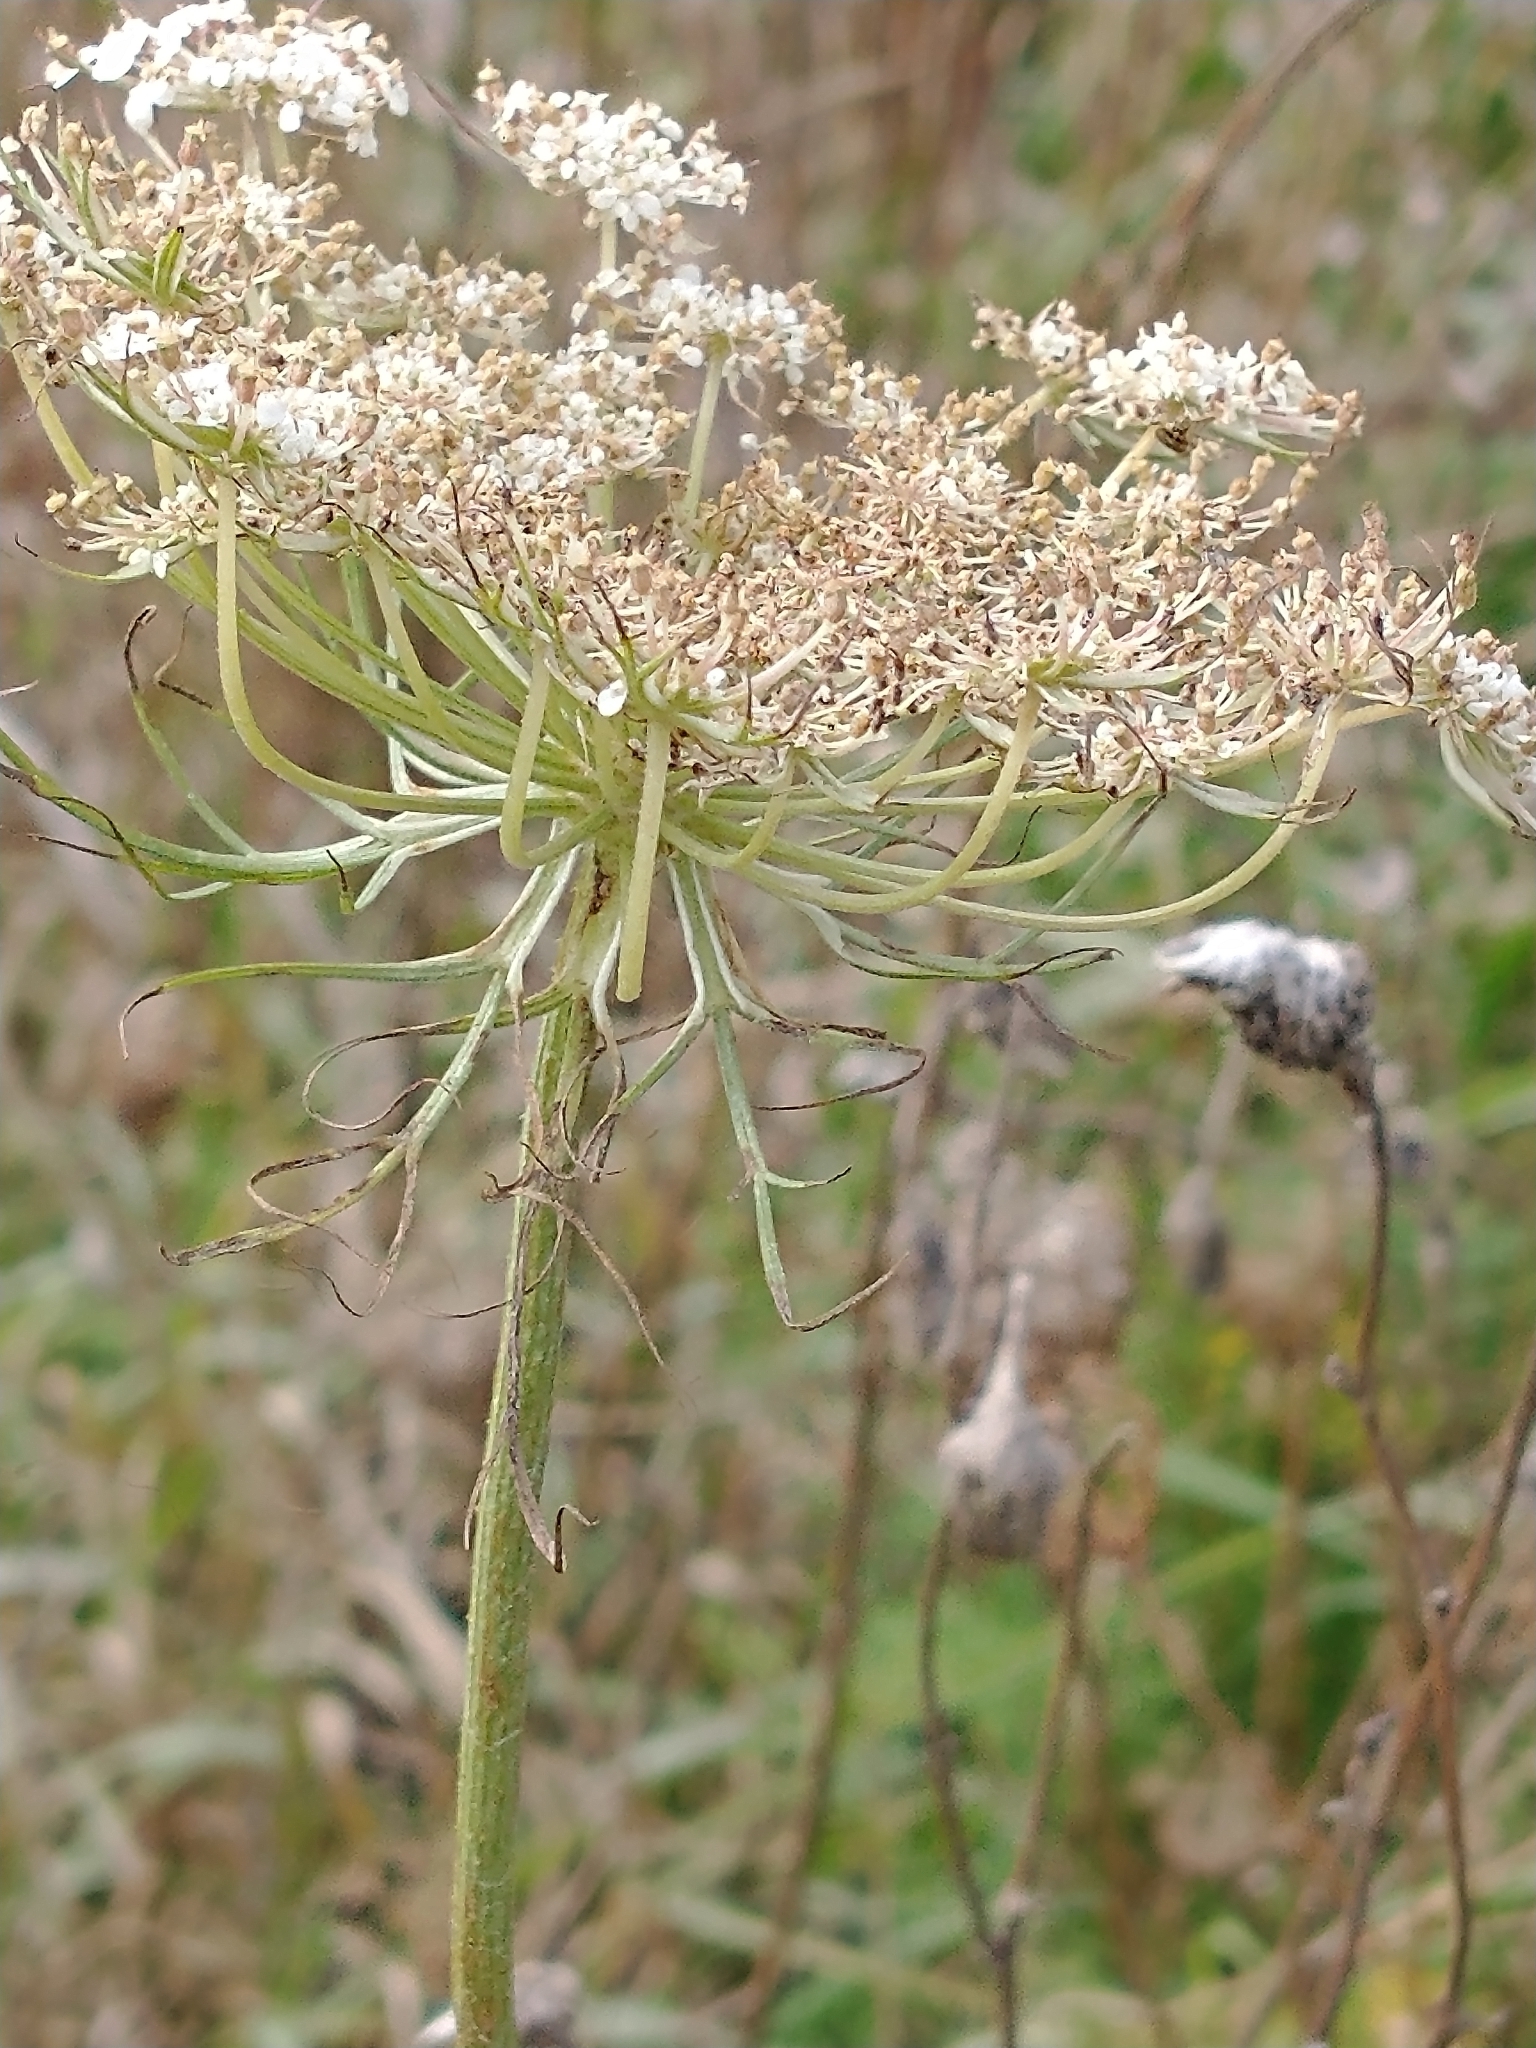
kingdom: Plantae
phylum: Tracheophyta
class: Magnoliopsida
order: Apiales
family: Apiaceae
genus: Daucus
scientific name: Daucus carota
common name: Wild carrot
